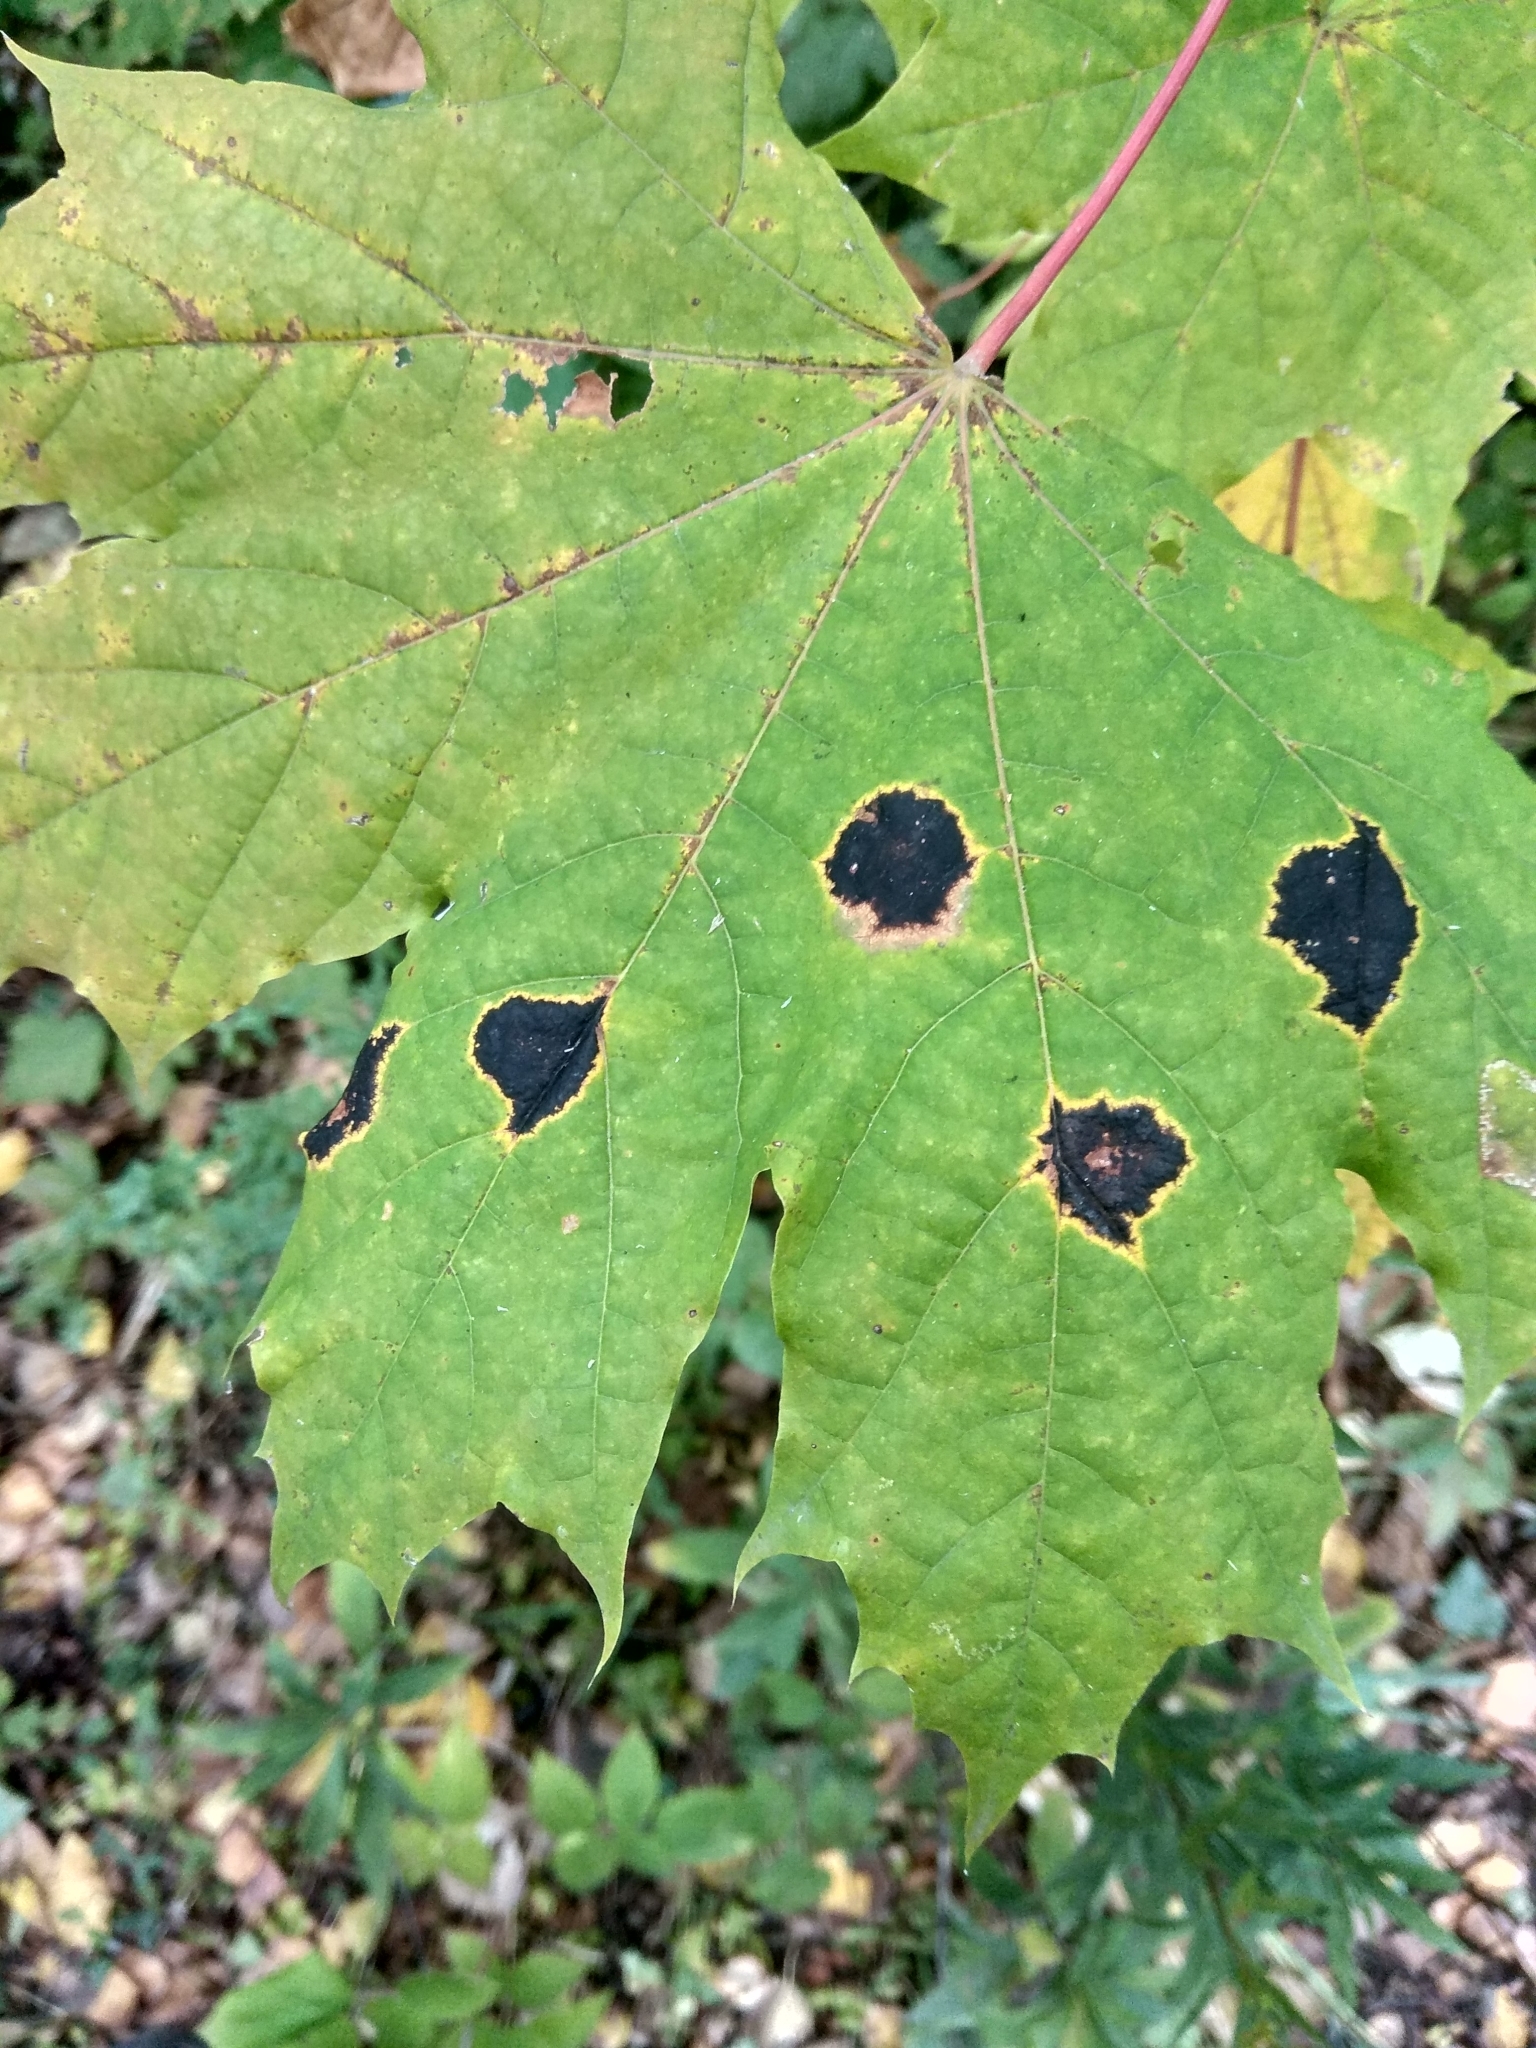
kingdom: Fungi
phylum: Ascomycota
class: Leotiomycetes
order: Rhytismatales
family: Rhytismataceae
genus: Rhytisma
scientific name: Rhytisma acerinum
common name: European tar spot
